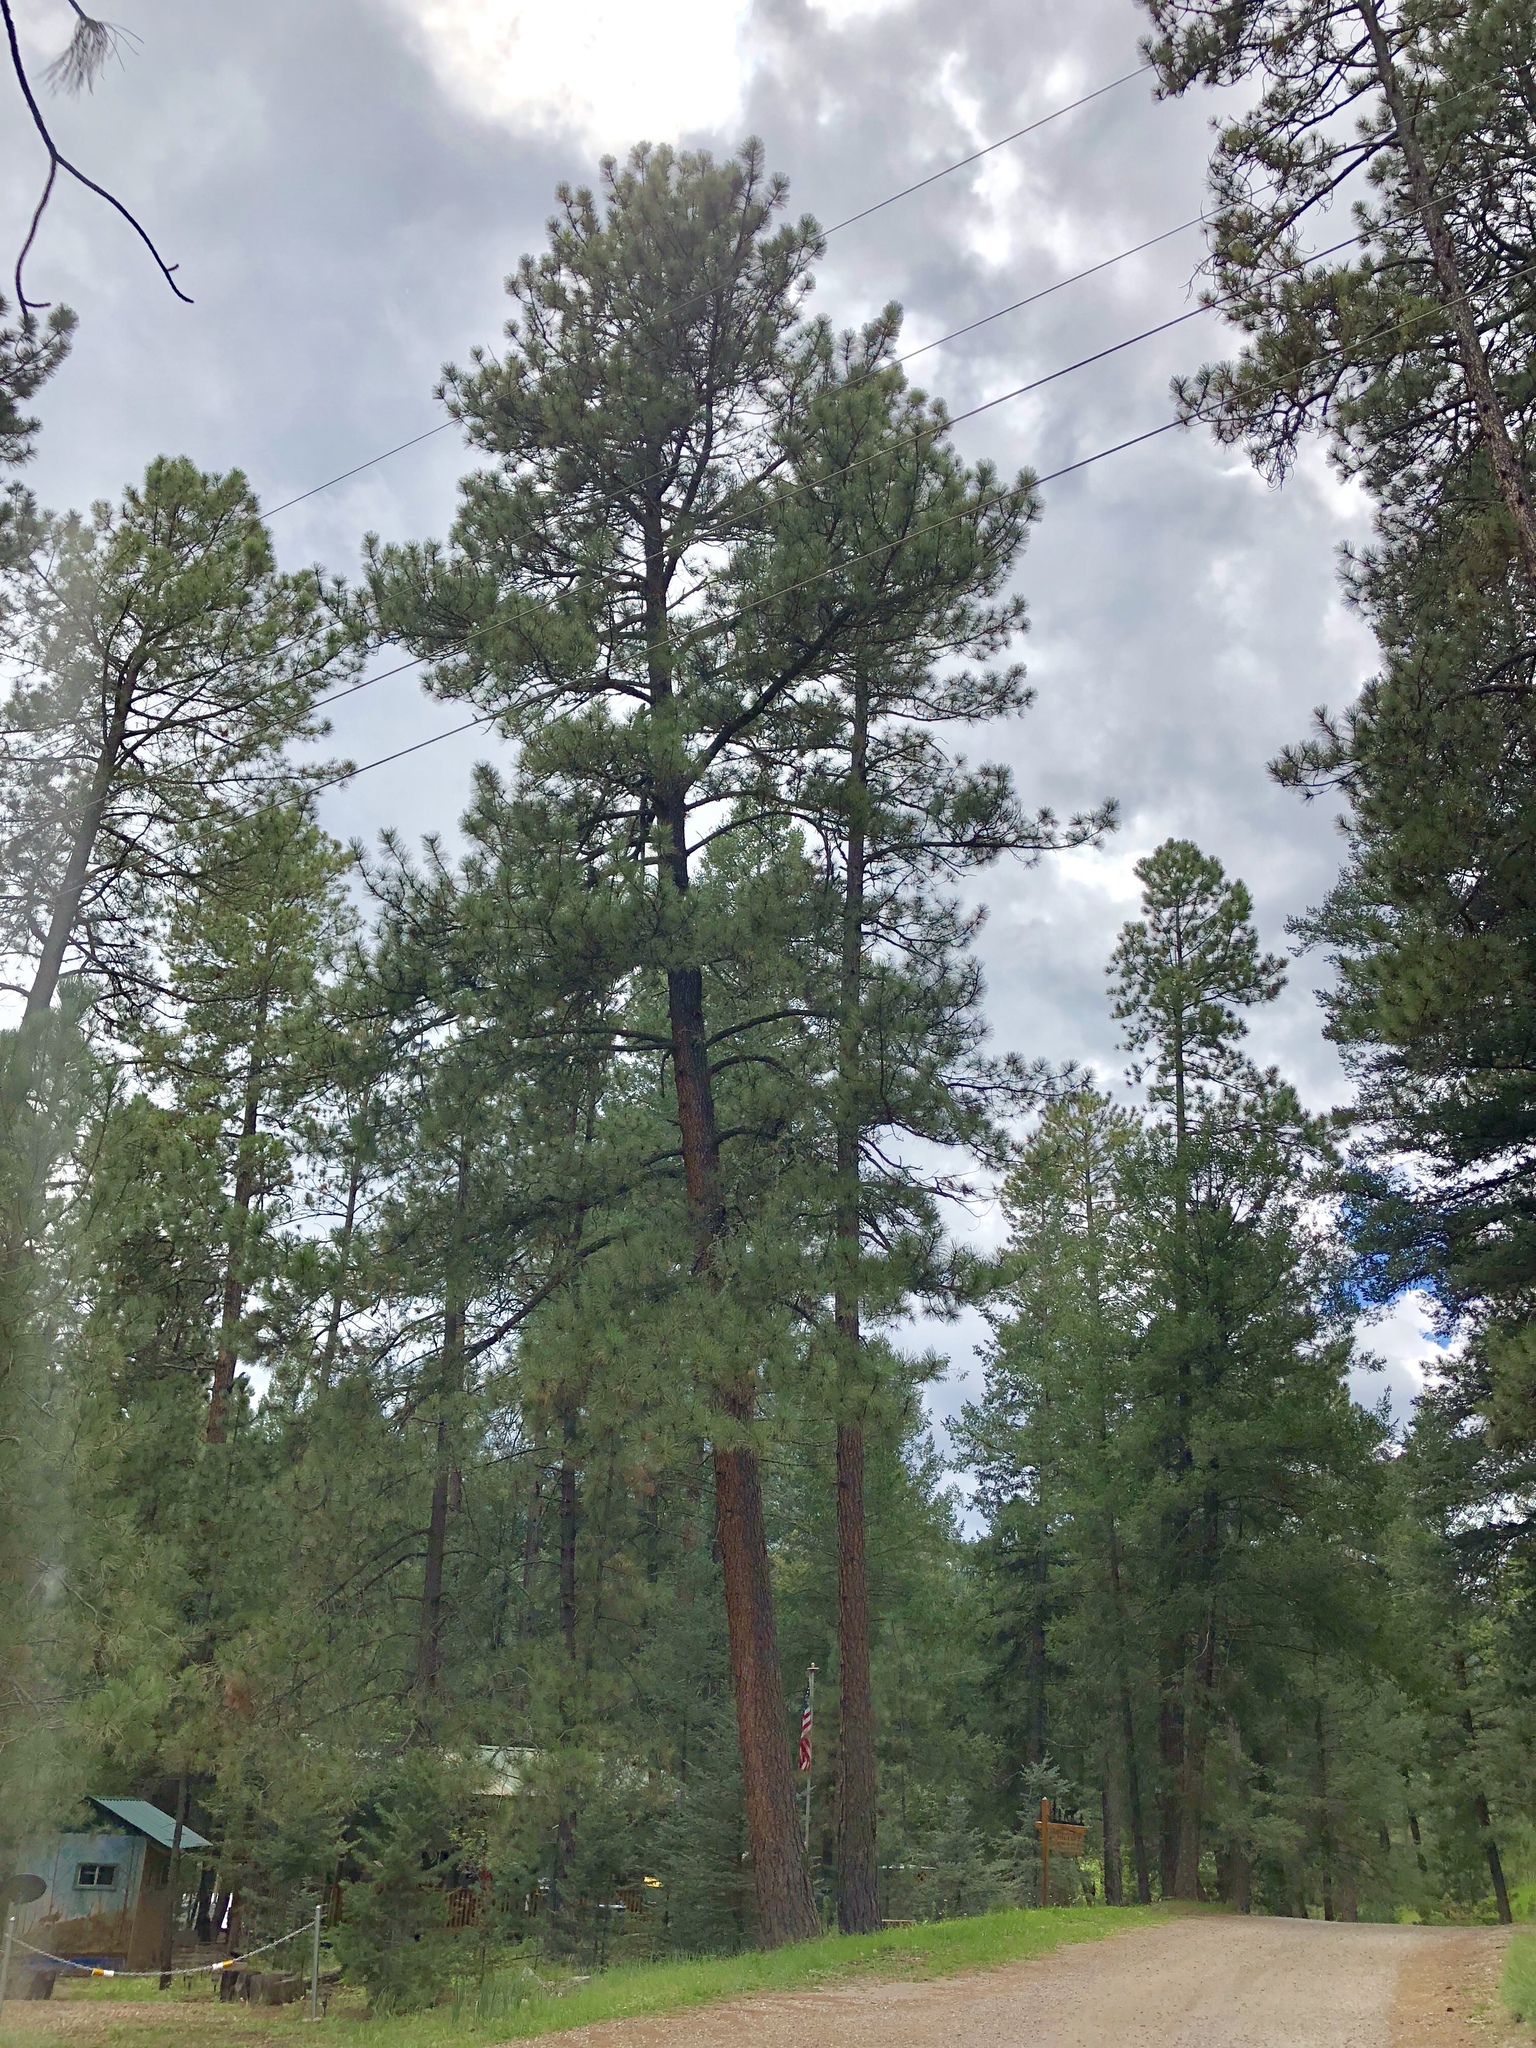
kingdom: Plantae
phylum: Tracheophyta
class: Pinopsida
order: Pinales
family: Pinaceae
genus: Pinus
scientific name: Pinus ponderosa
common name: Western yellow-pine
